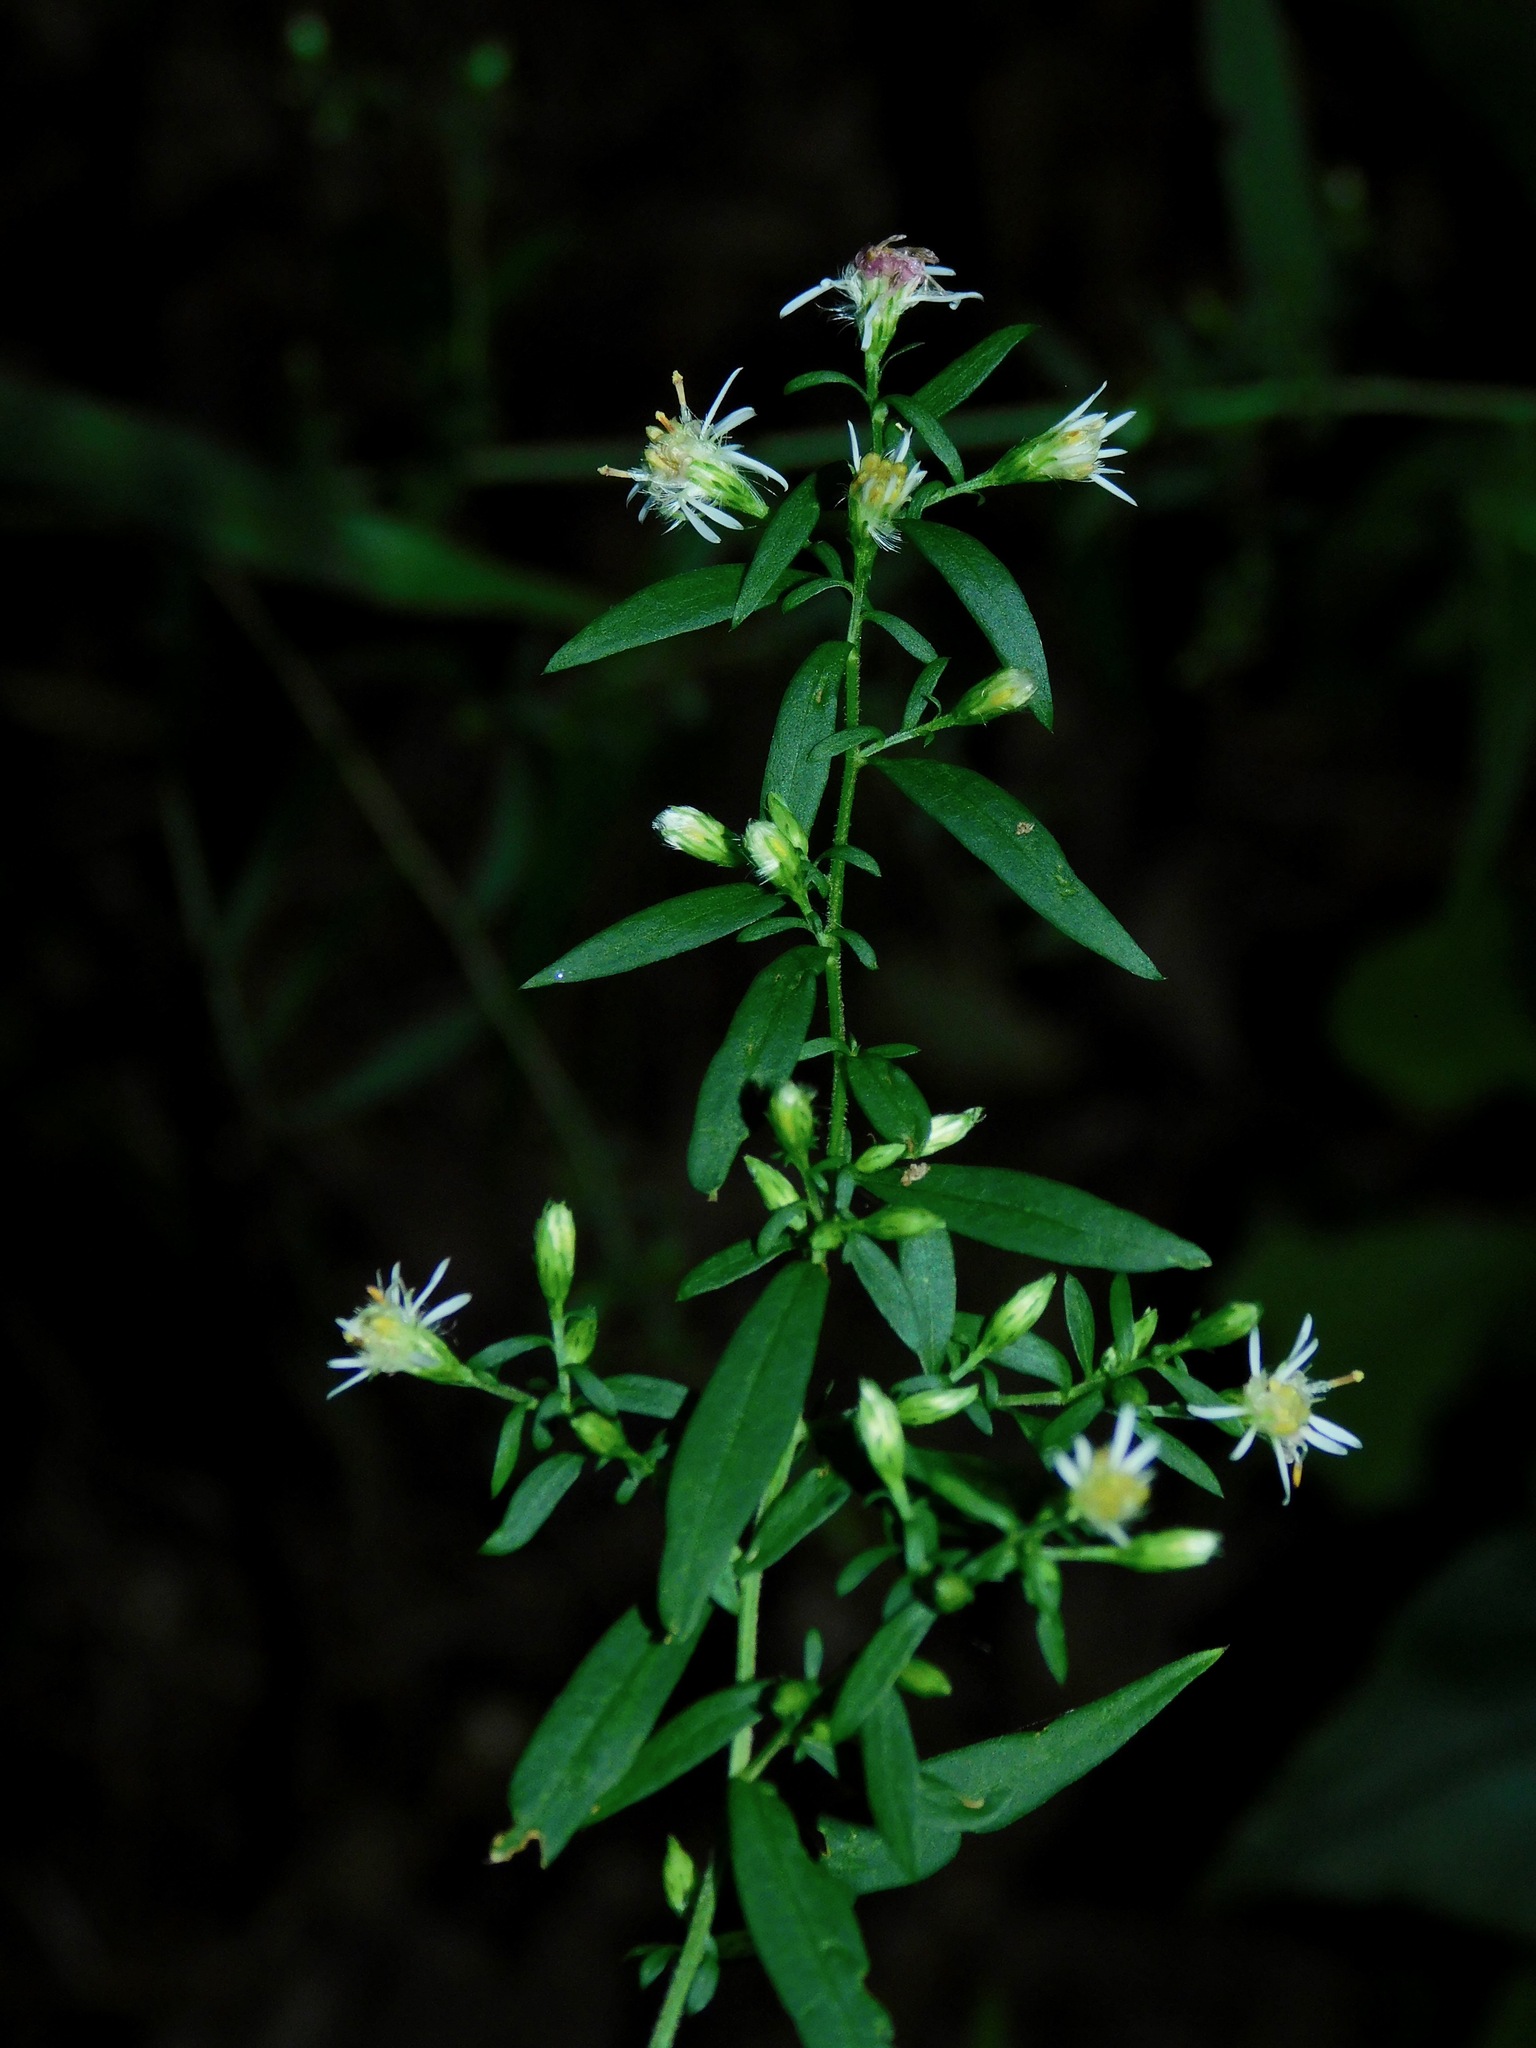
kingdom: Plantae
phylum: Tracheophyta
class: Magnoliopsida
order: Asterales
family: Asteraceae
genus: Symphyotrichum
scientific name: Symphyotrichum lateriflorum
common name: Calico aster
